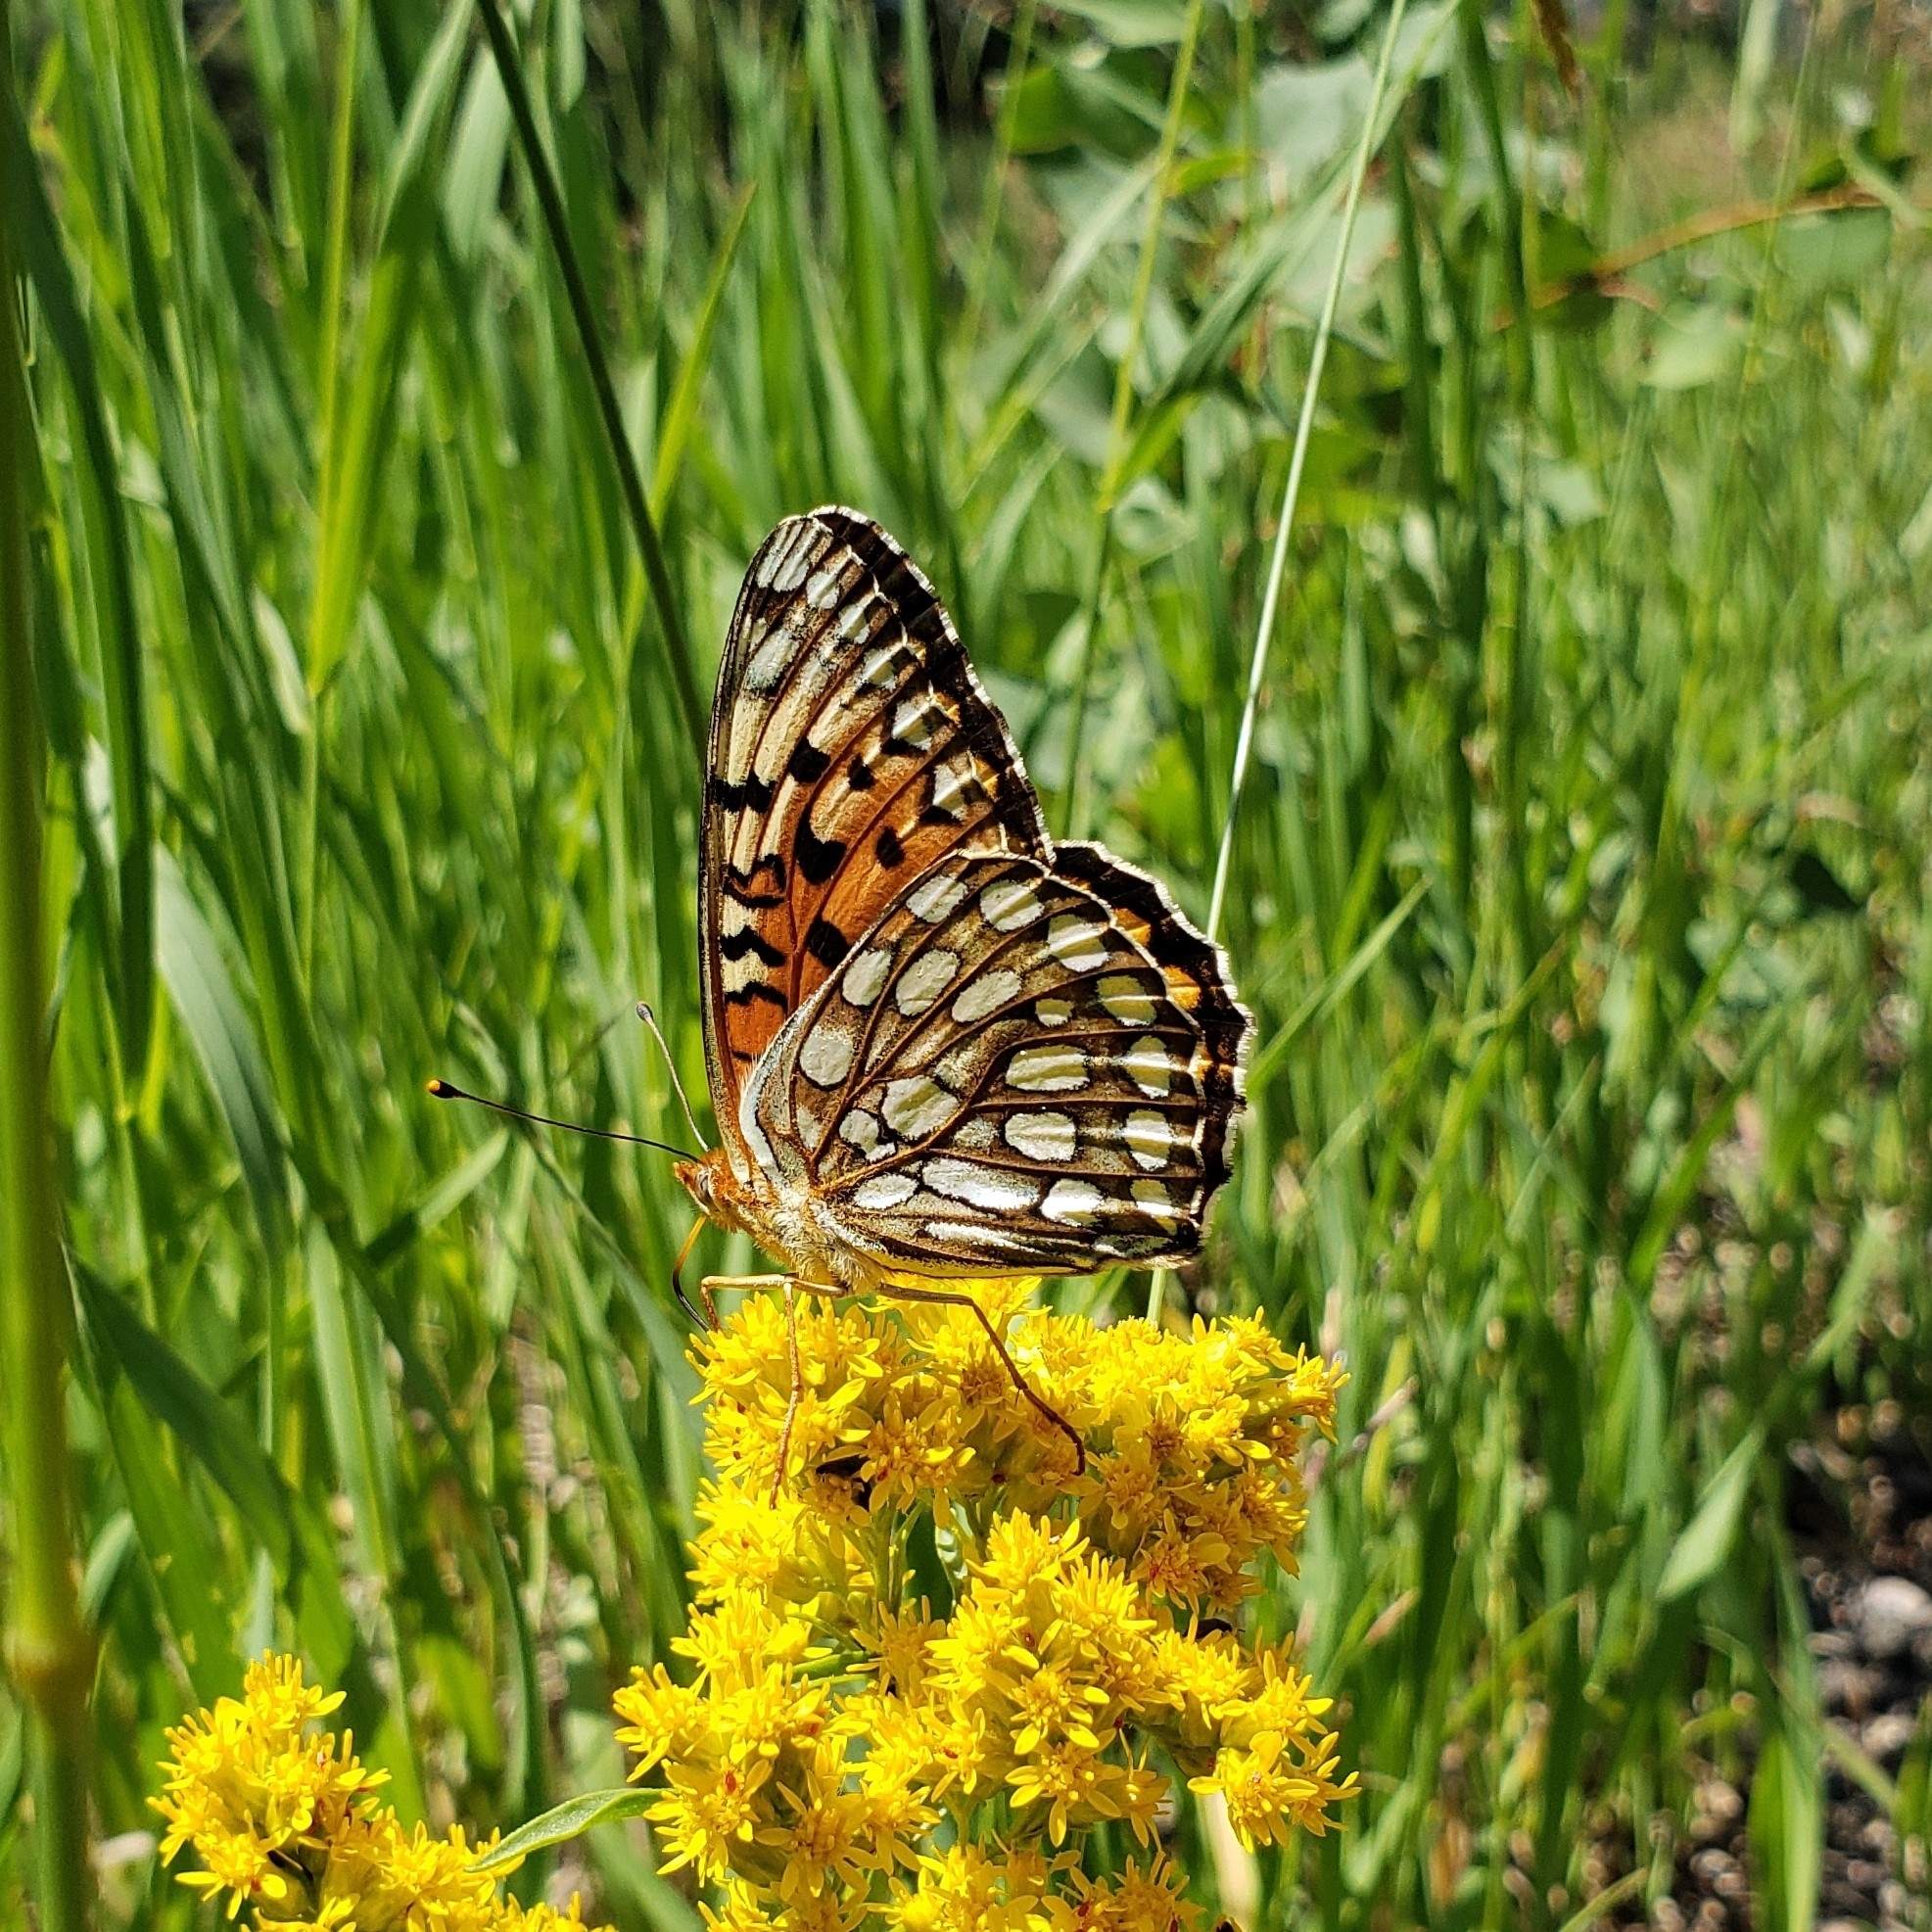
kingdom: Animalia
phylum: Arthropoda
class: Insecta
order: Lepidoptera
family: Nymphalidae
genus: Speyeria
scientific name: Speyeria edwardsii
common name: Edwards' fritillary
